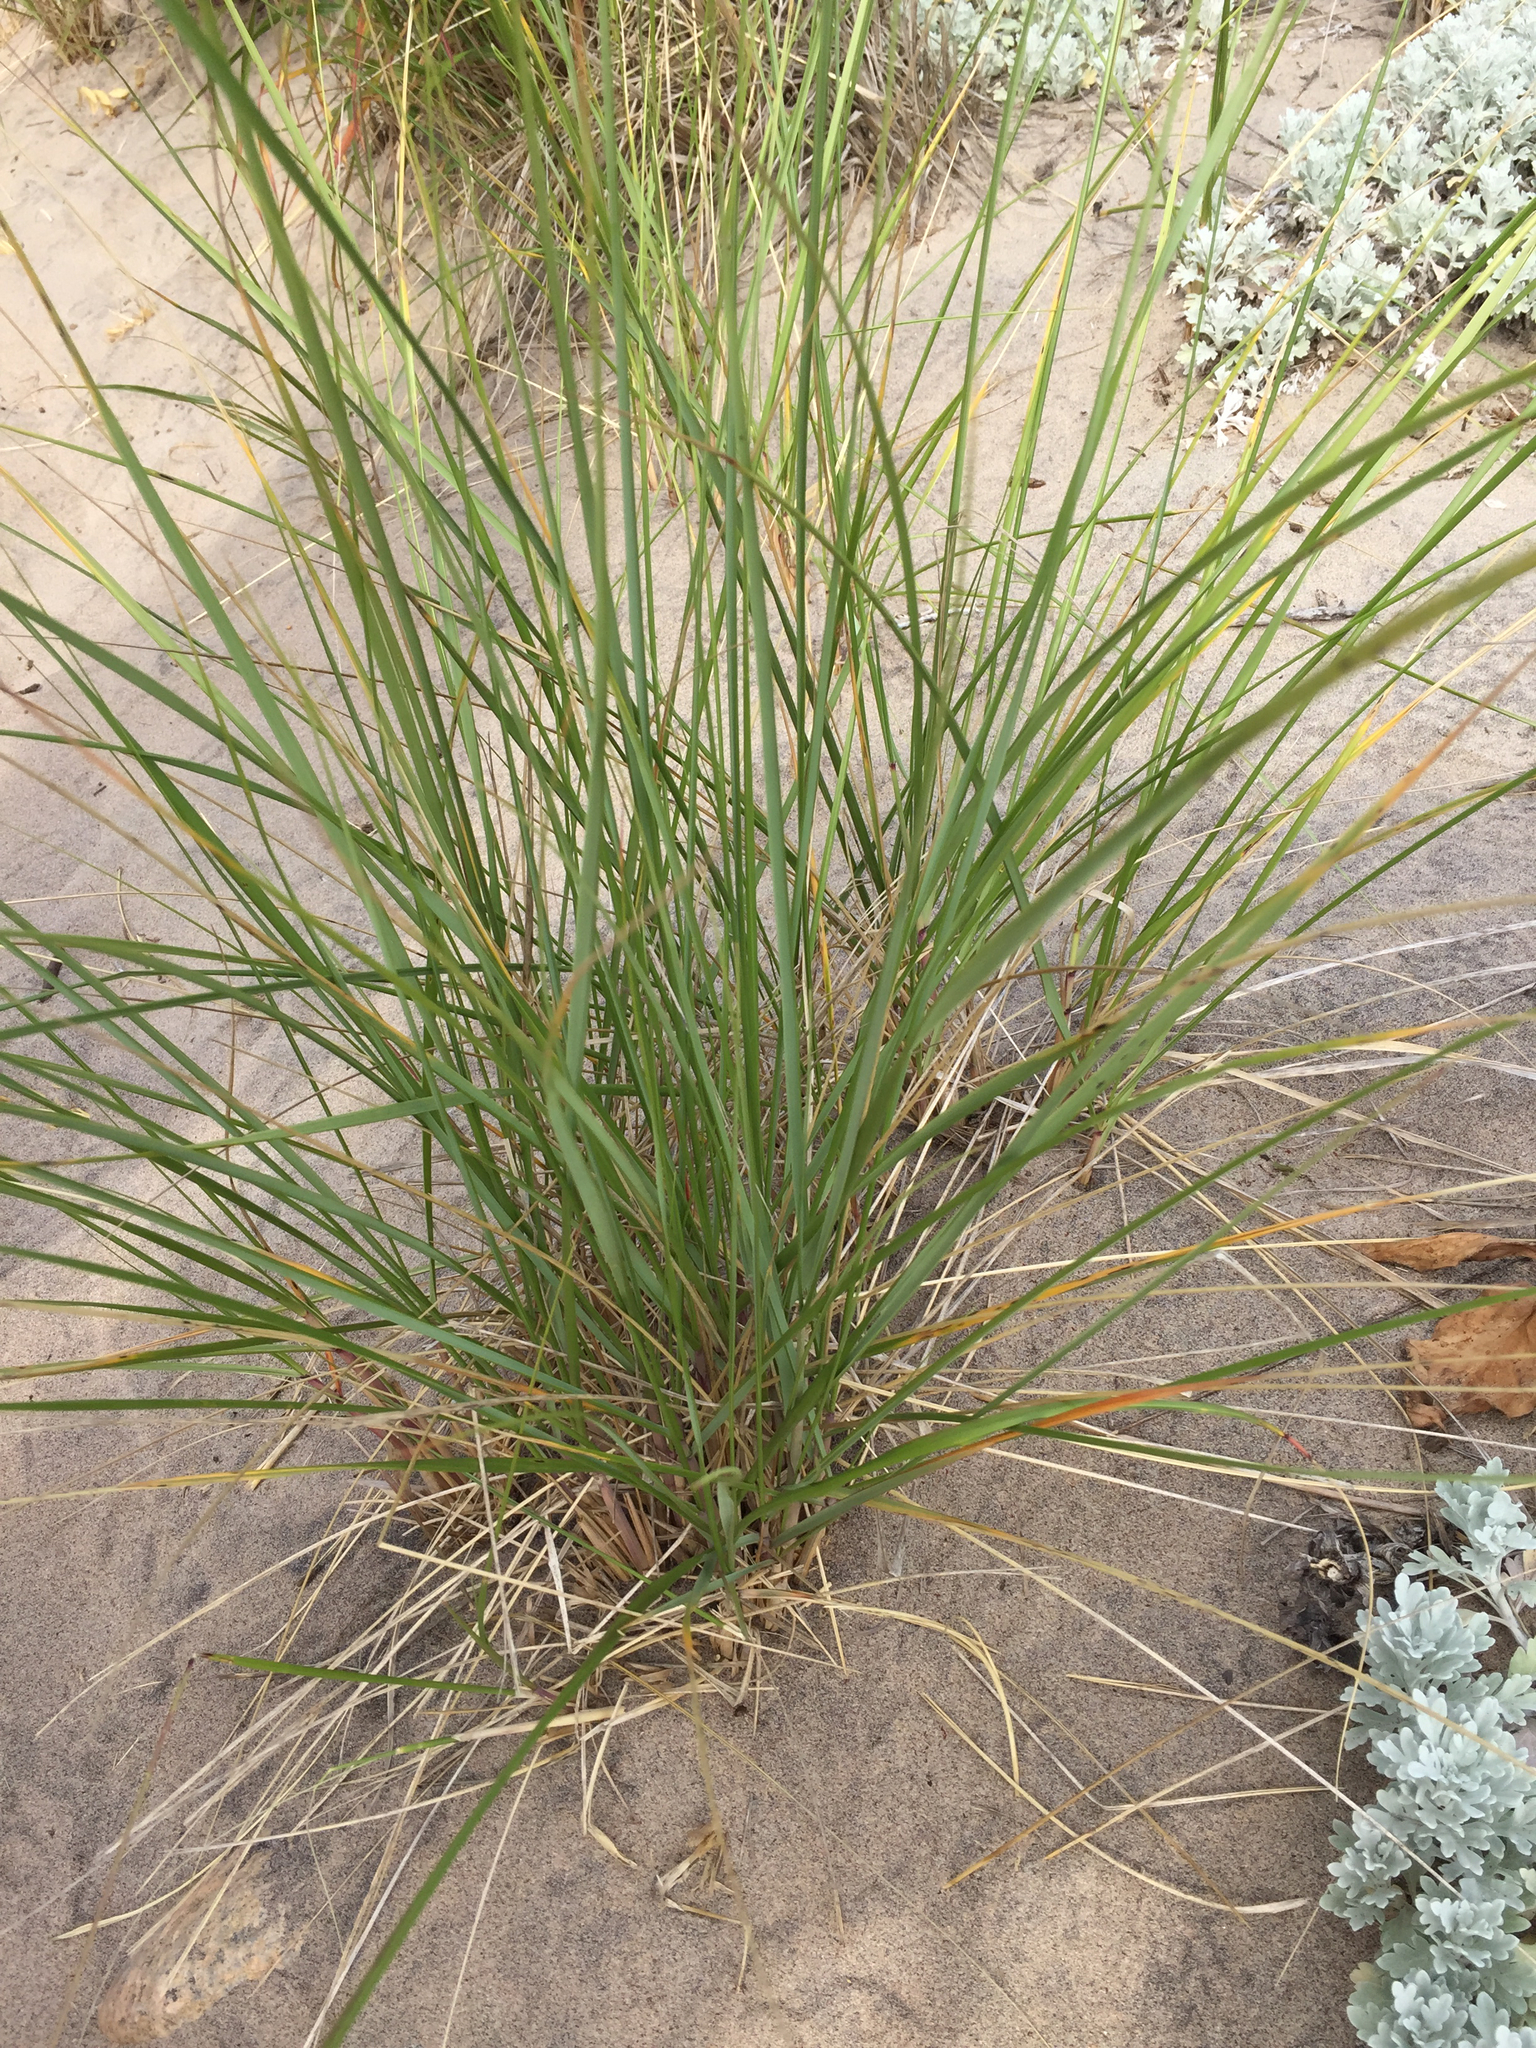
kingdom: Plantae
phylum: Tracheophyta
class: Liliopsida
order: Poales
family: Poaceae
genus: Leymus
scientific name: Leymus mollis
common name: American dune grass
